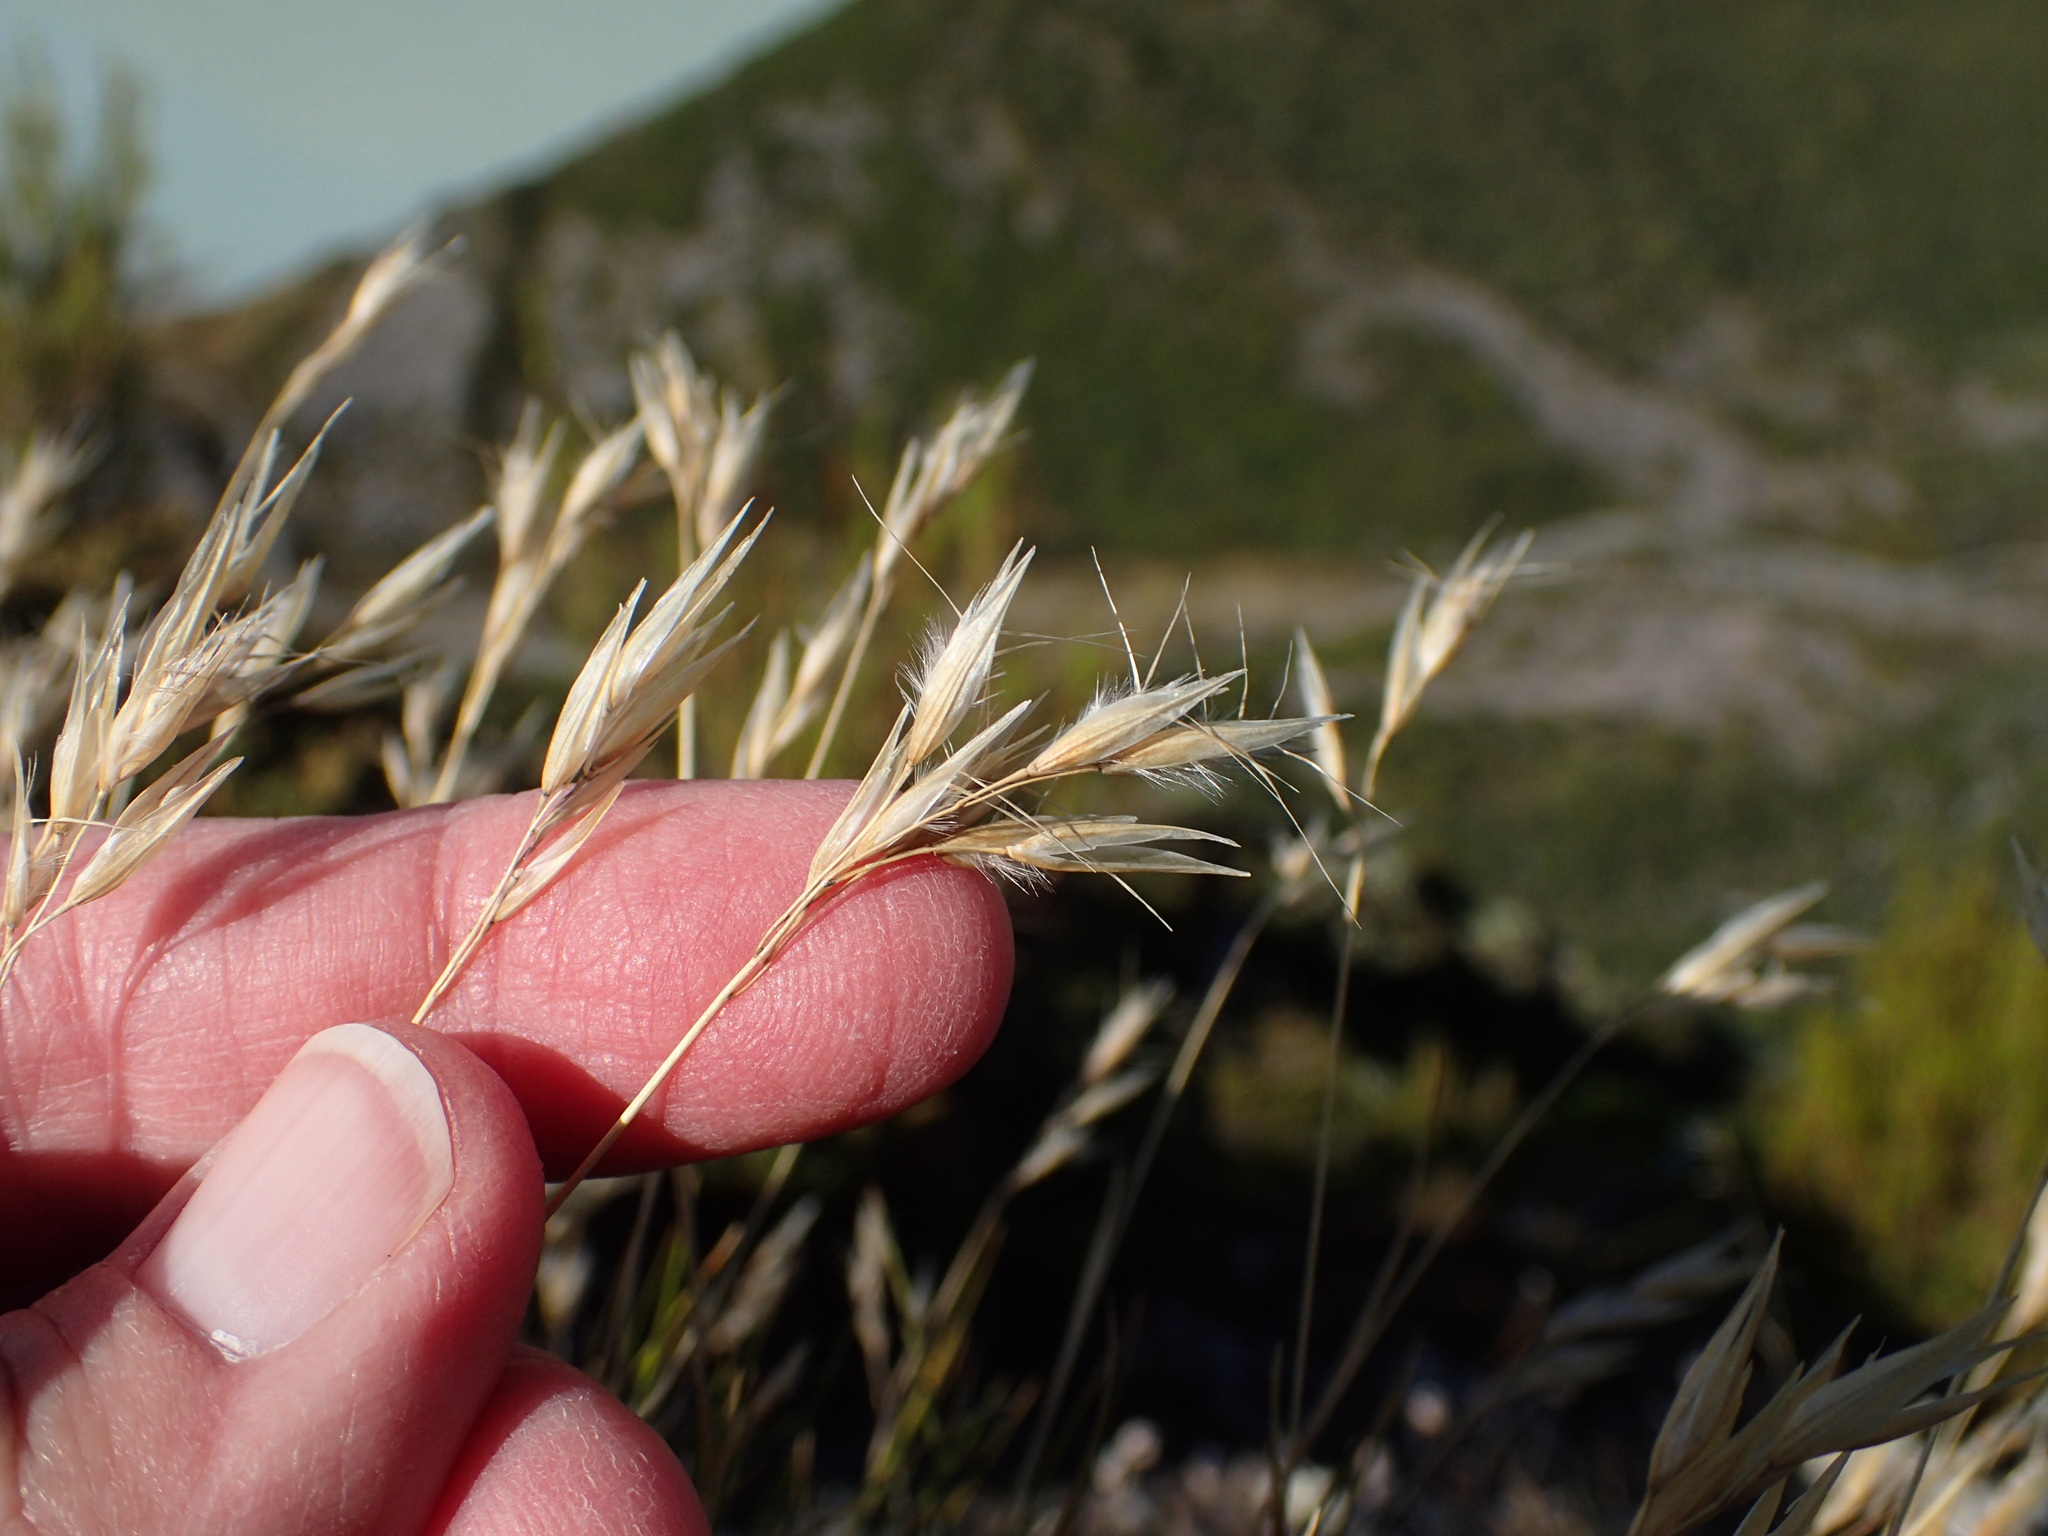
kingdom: Plantae
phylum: Tracheophyta
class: Liliopsida
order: Poales
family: Poaceae
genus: Rytidosperma
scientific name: Rytidosperma setifolium
